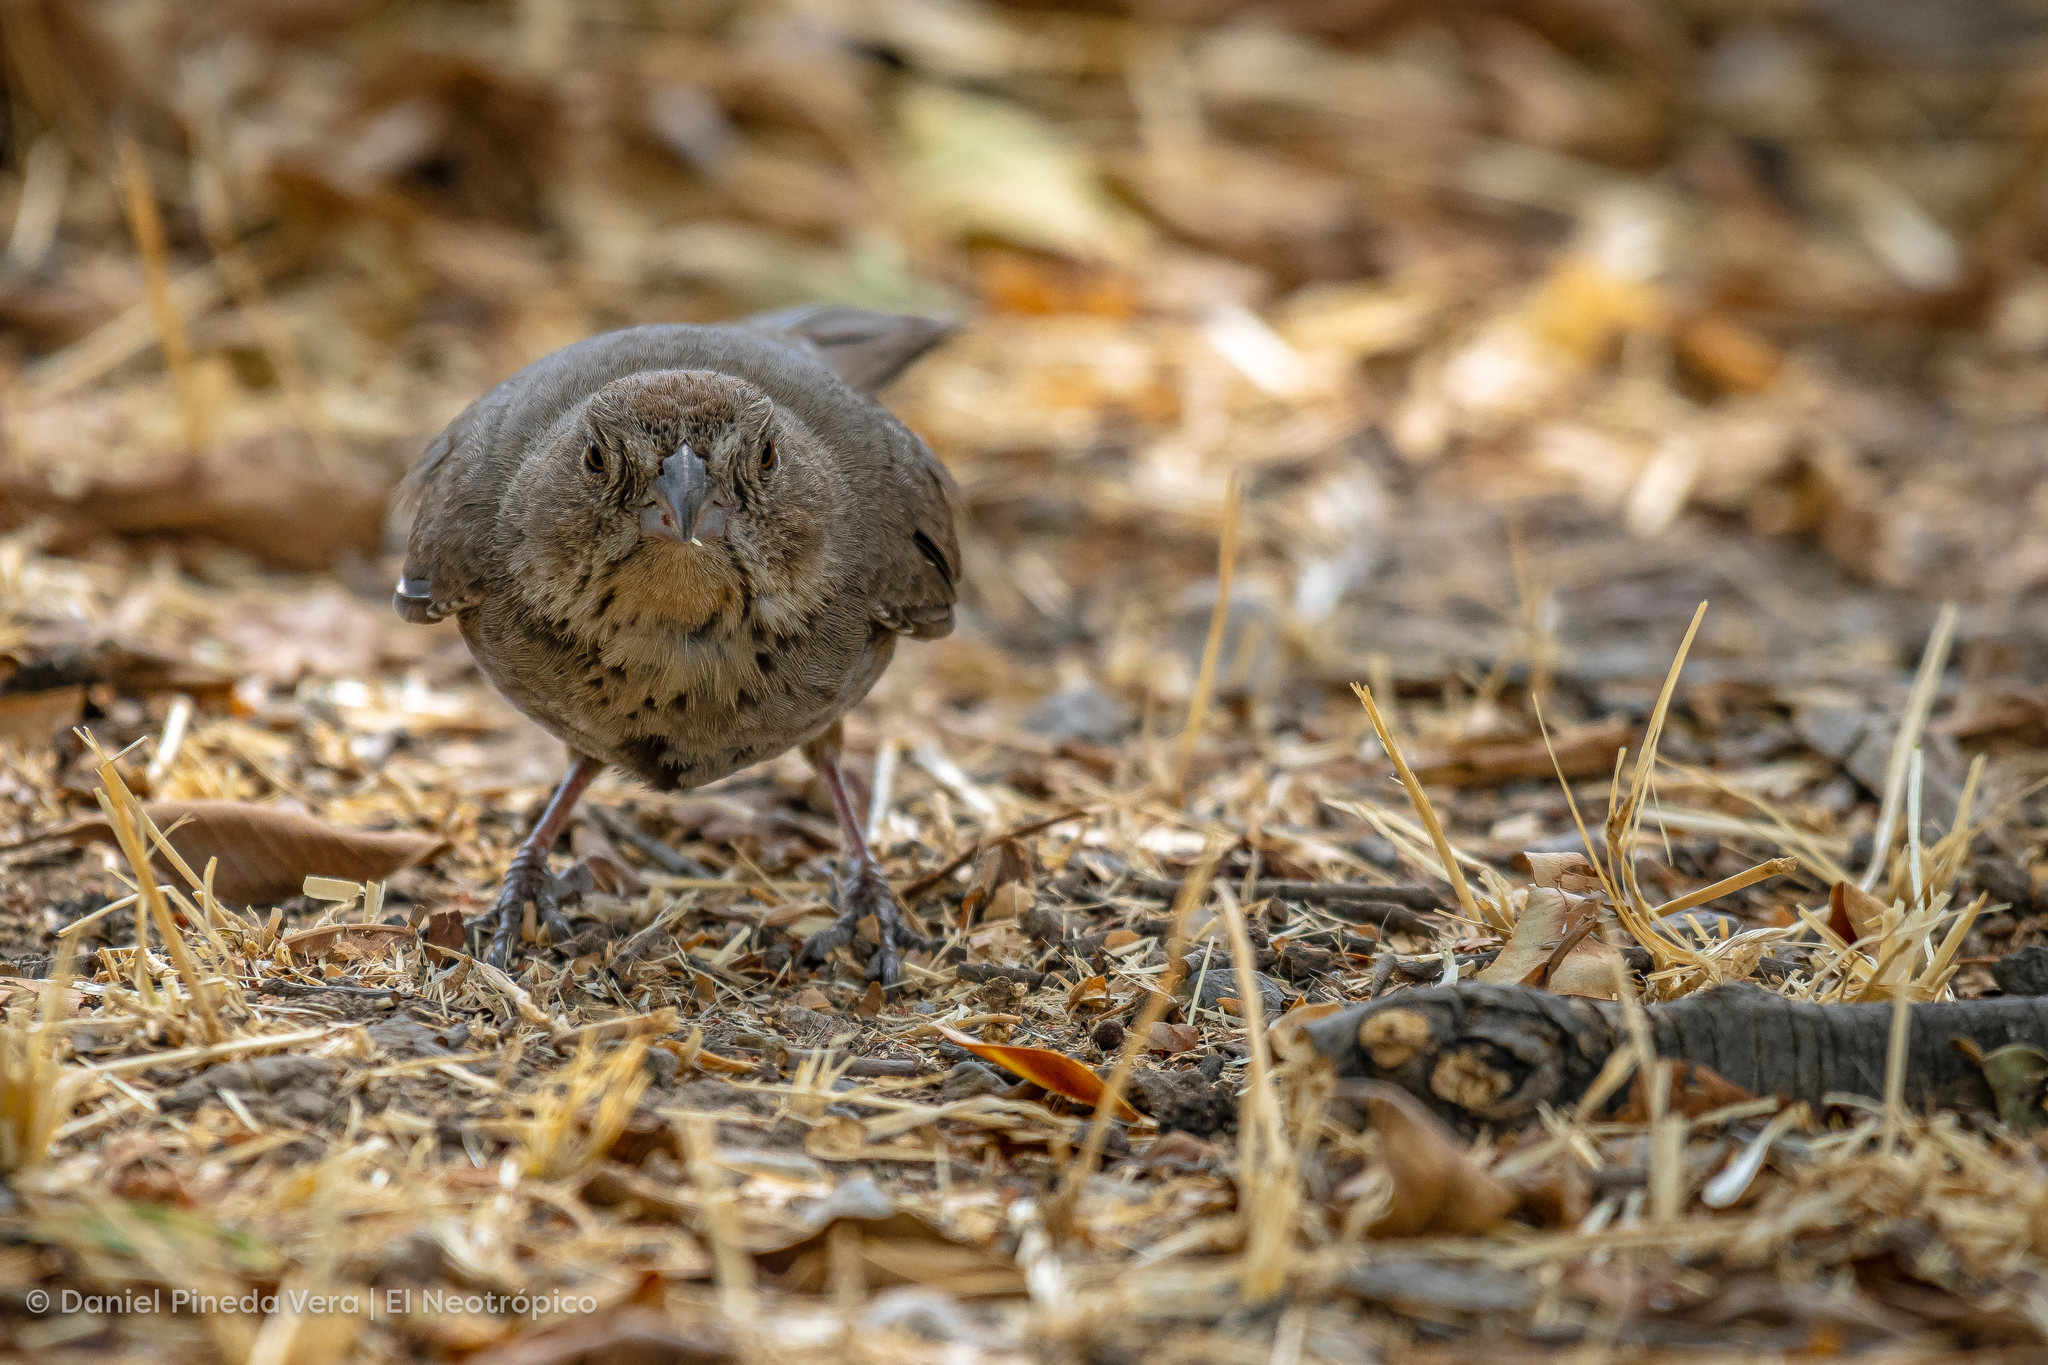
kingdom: Animalia
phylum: Chordata
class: Aves
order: Passeriformes
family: Passerellidae
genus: Melozone
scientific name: Melozone fusca
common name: Canyon towhee
